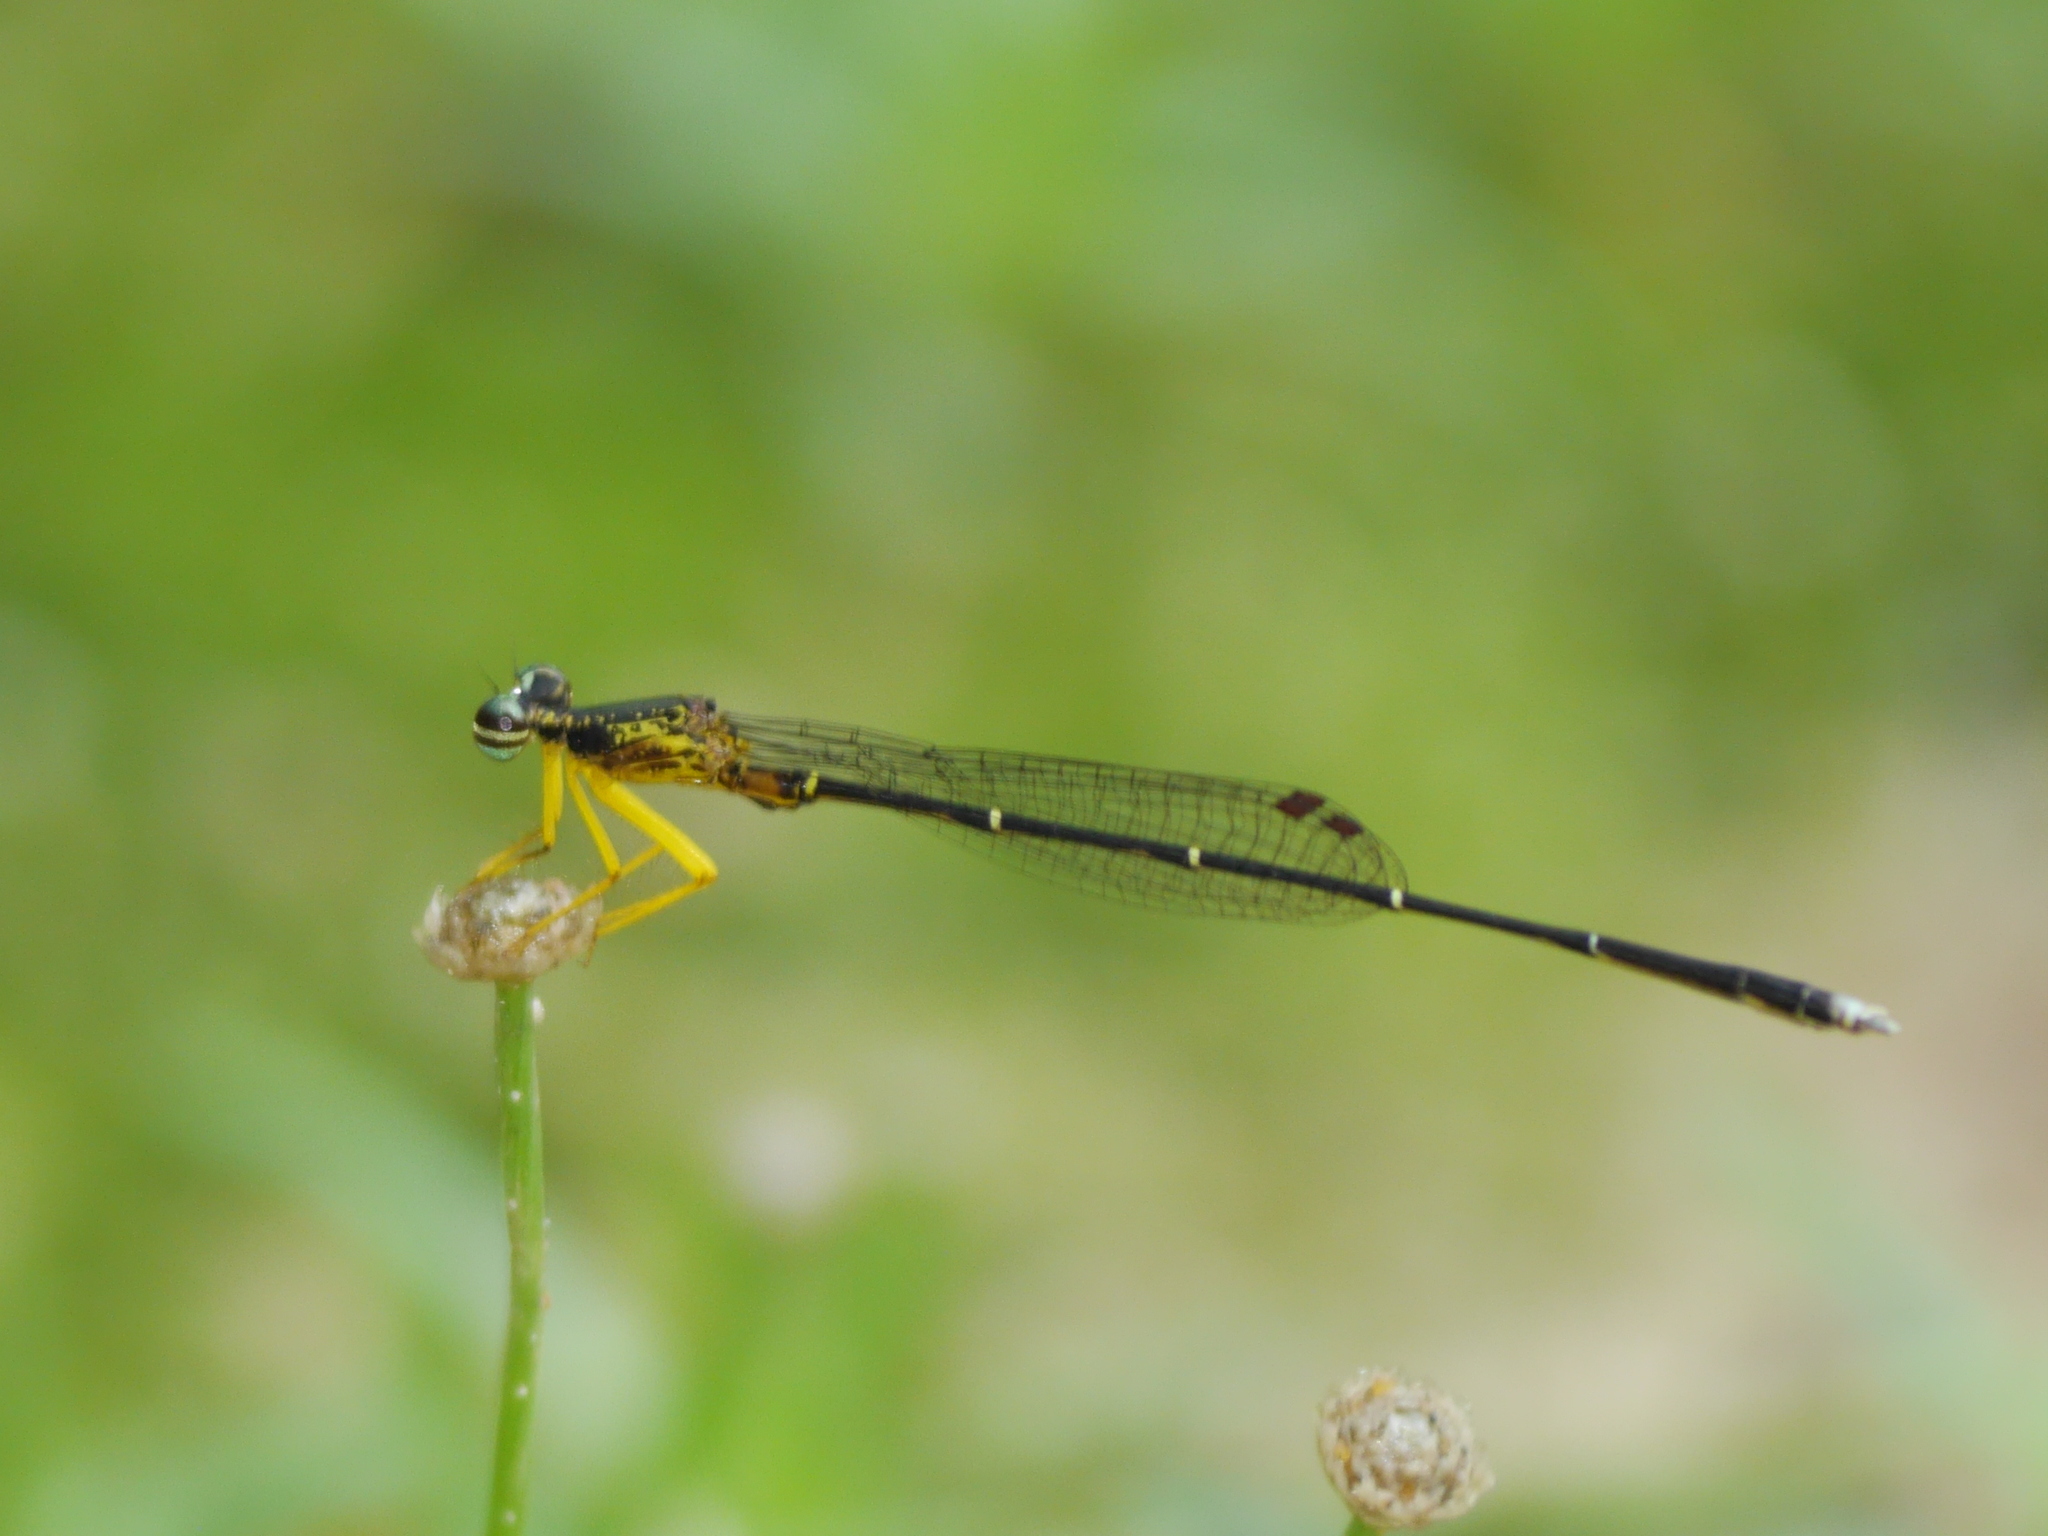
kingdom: Animalia
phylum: Arthropoda
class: Insecta
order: Odonata
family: Platycnemididae
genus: Copera
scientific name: Copera marginipes
